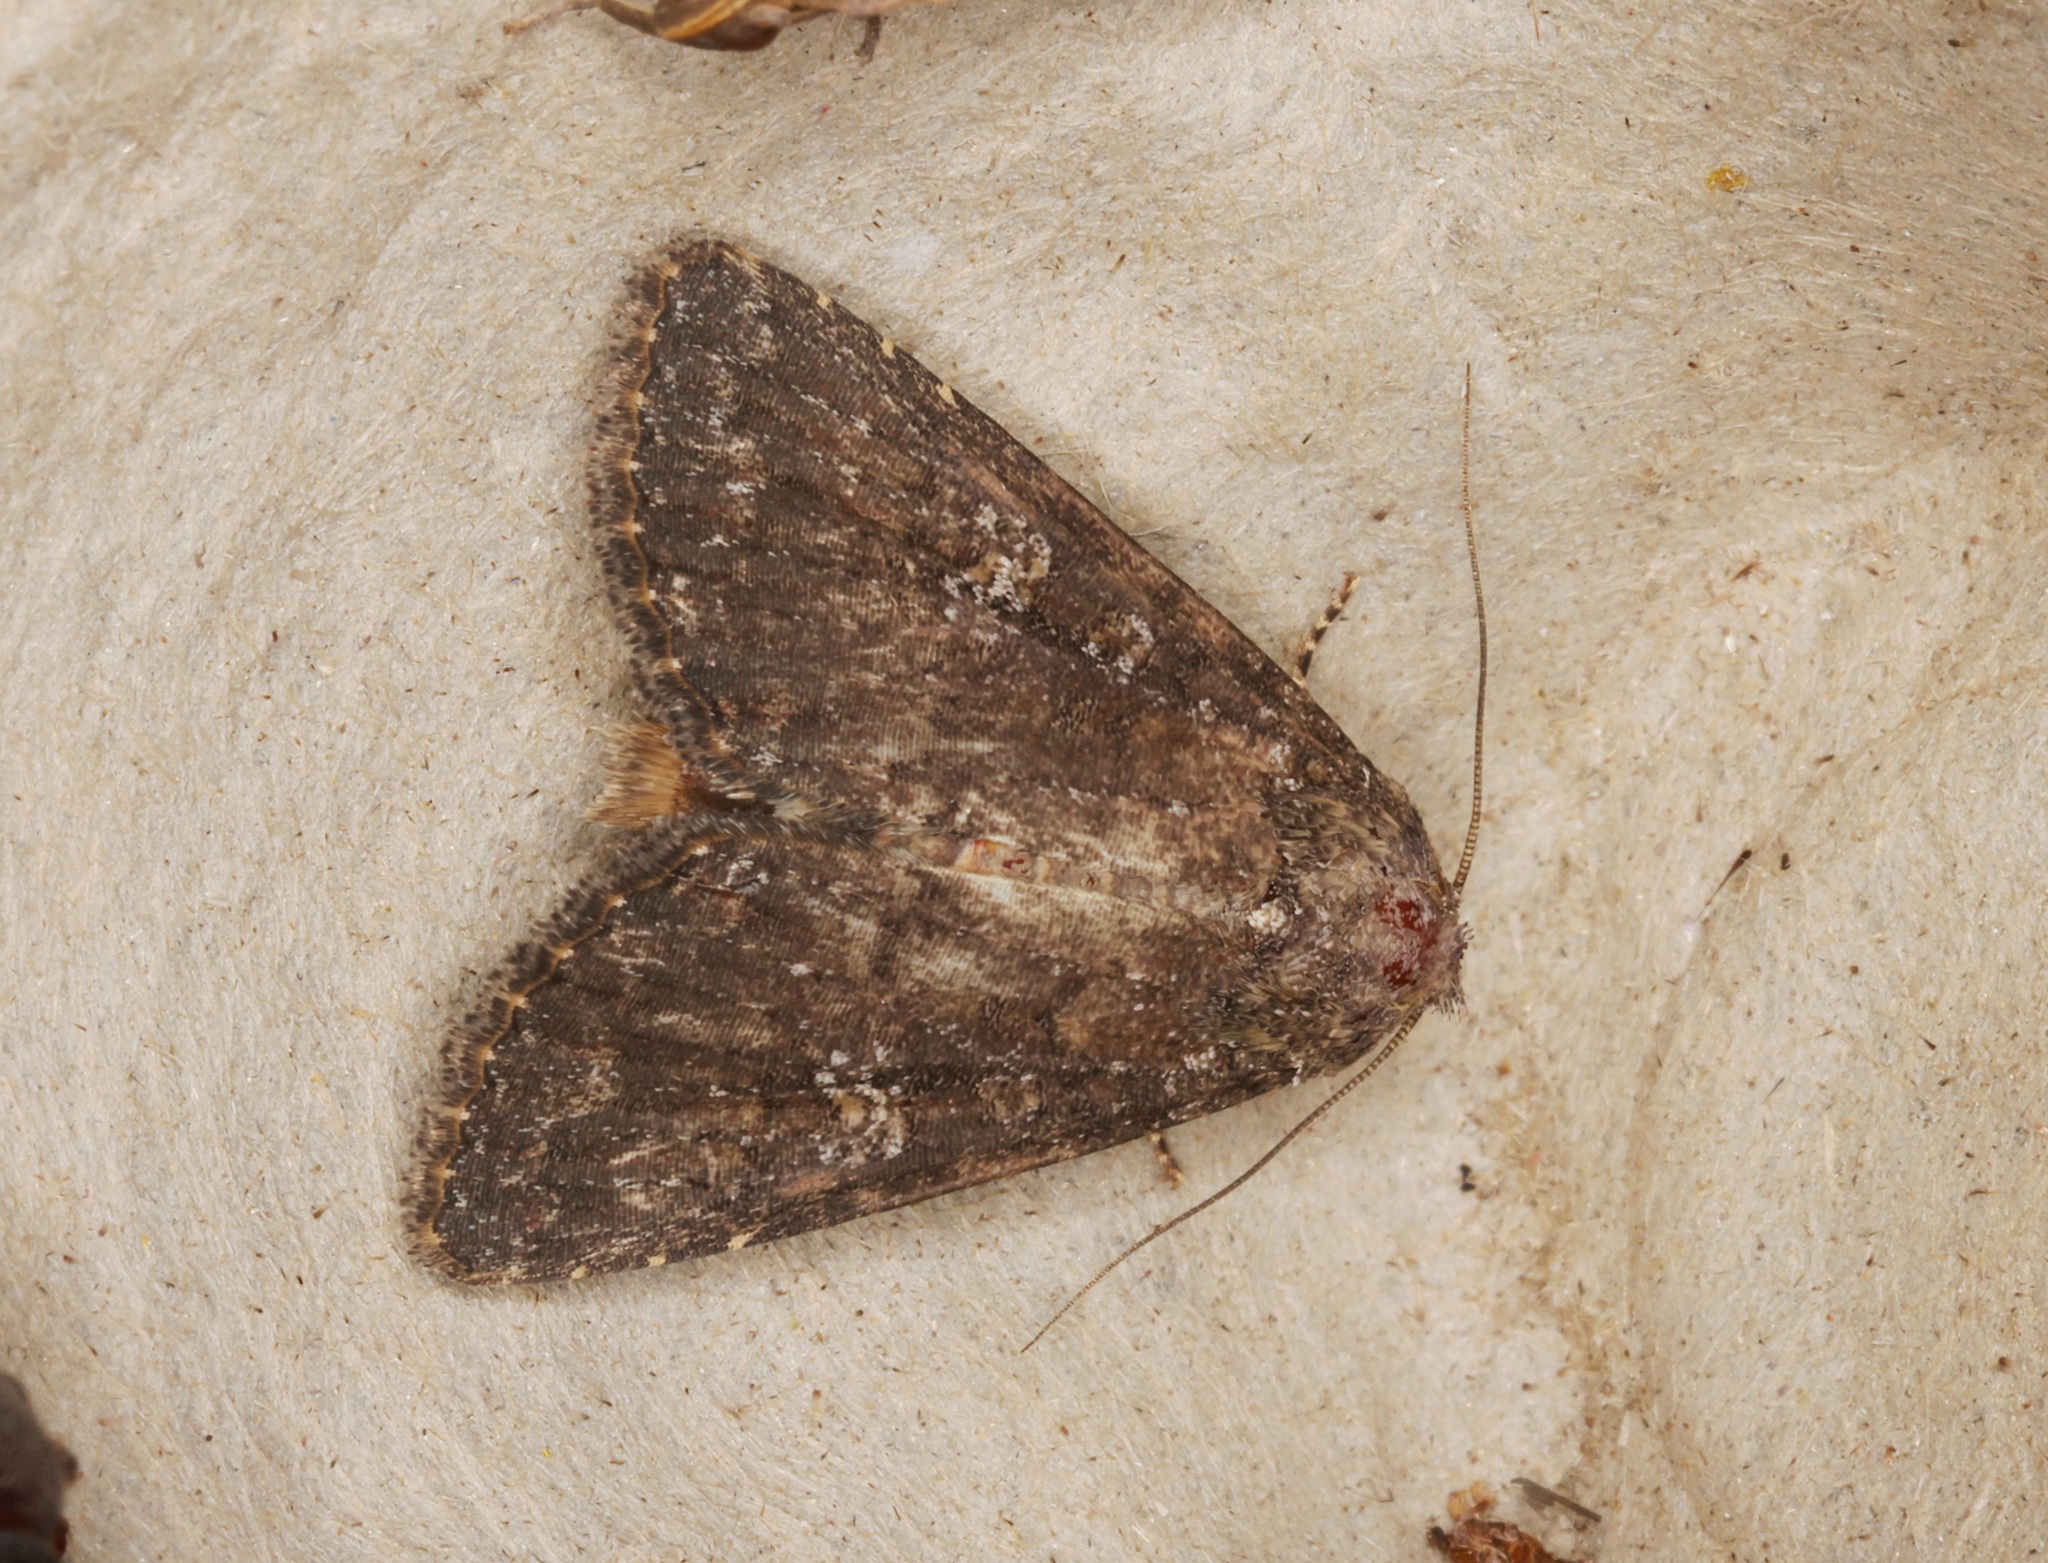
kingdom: Animalia
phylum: Arthropoda
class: Insecta
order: Lepidoptera
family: Noctuidae
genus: Condica
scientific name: Condica illecta
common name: Cutworm
